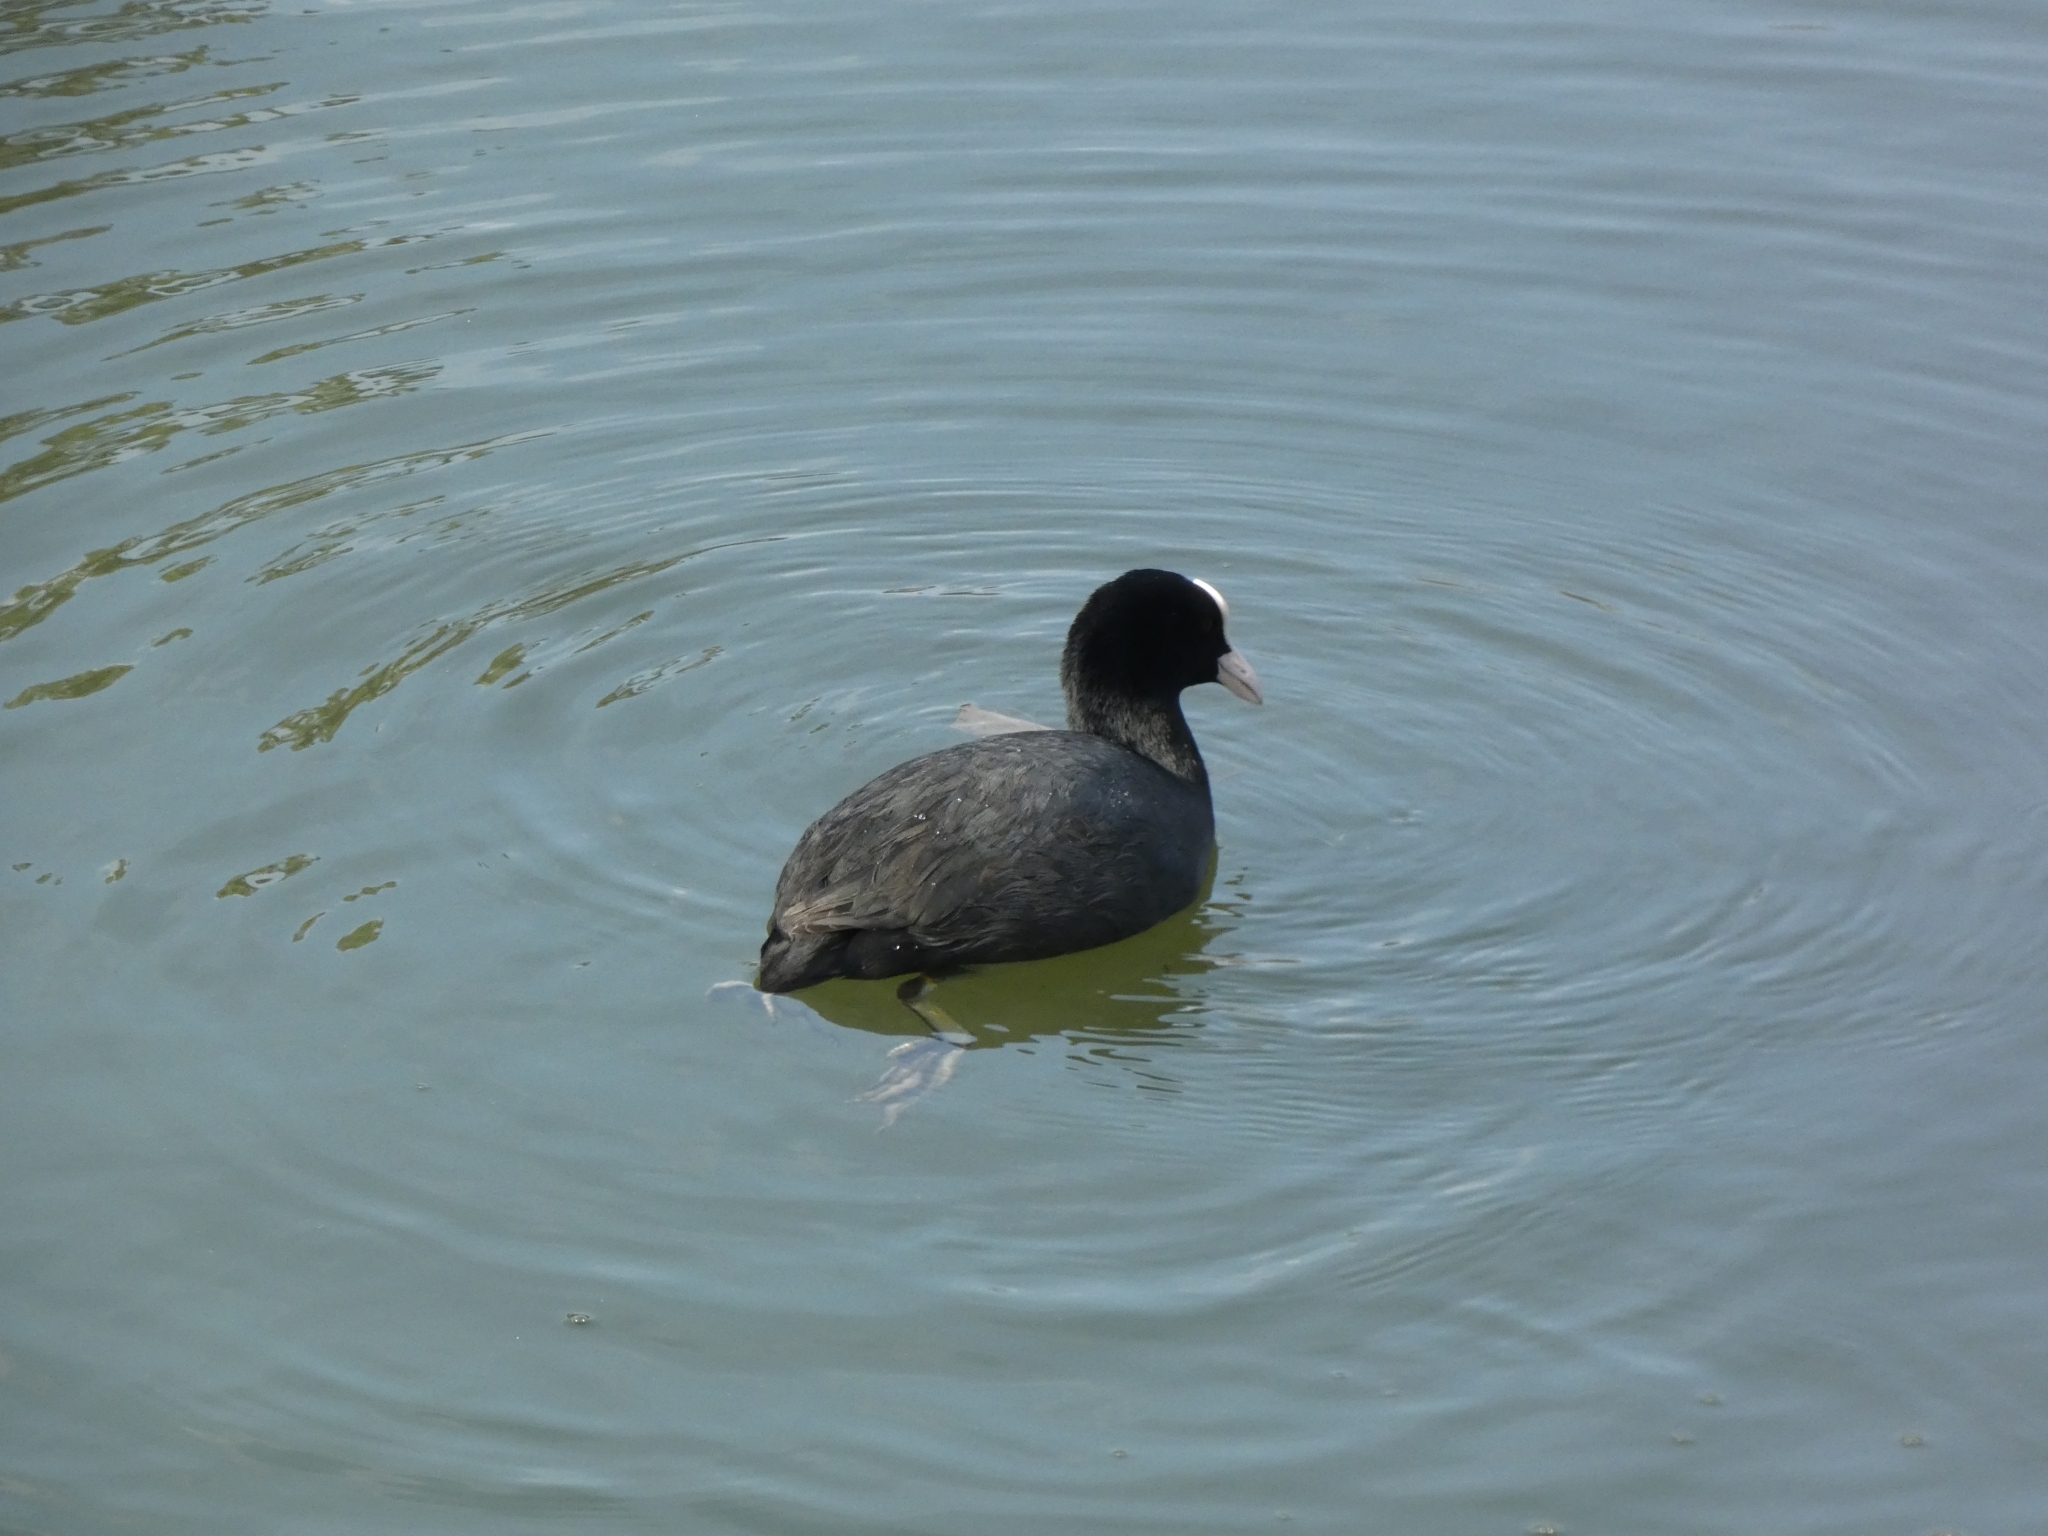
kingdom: Animalia
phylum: Chordata
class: Aves
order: Gruiformes
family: Rallidae
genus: Fulica
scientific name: Fulica atra
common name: Eurasian coot
